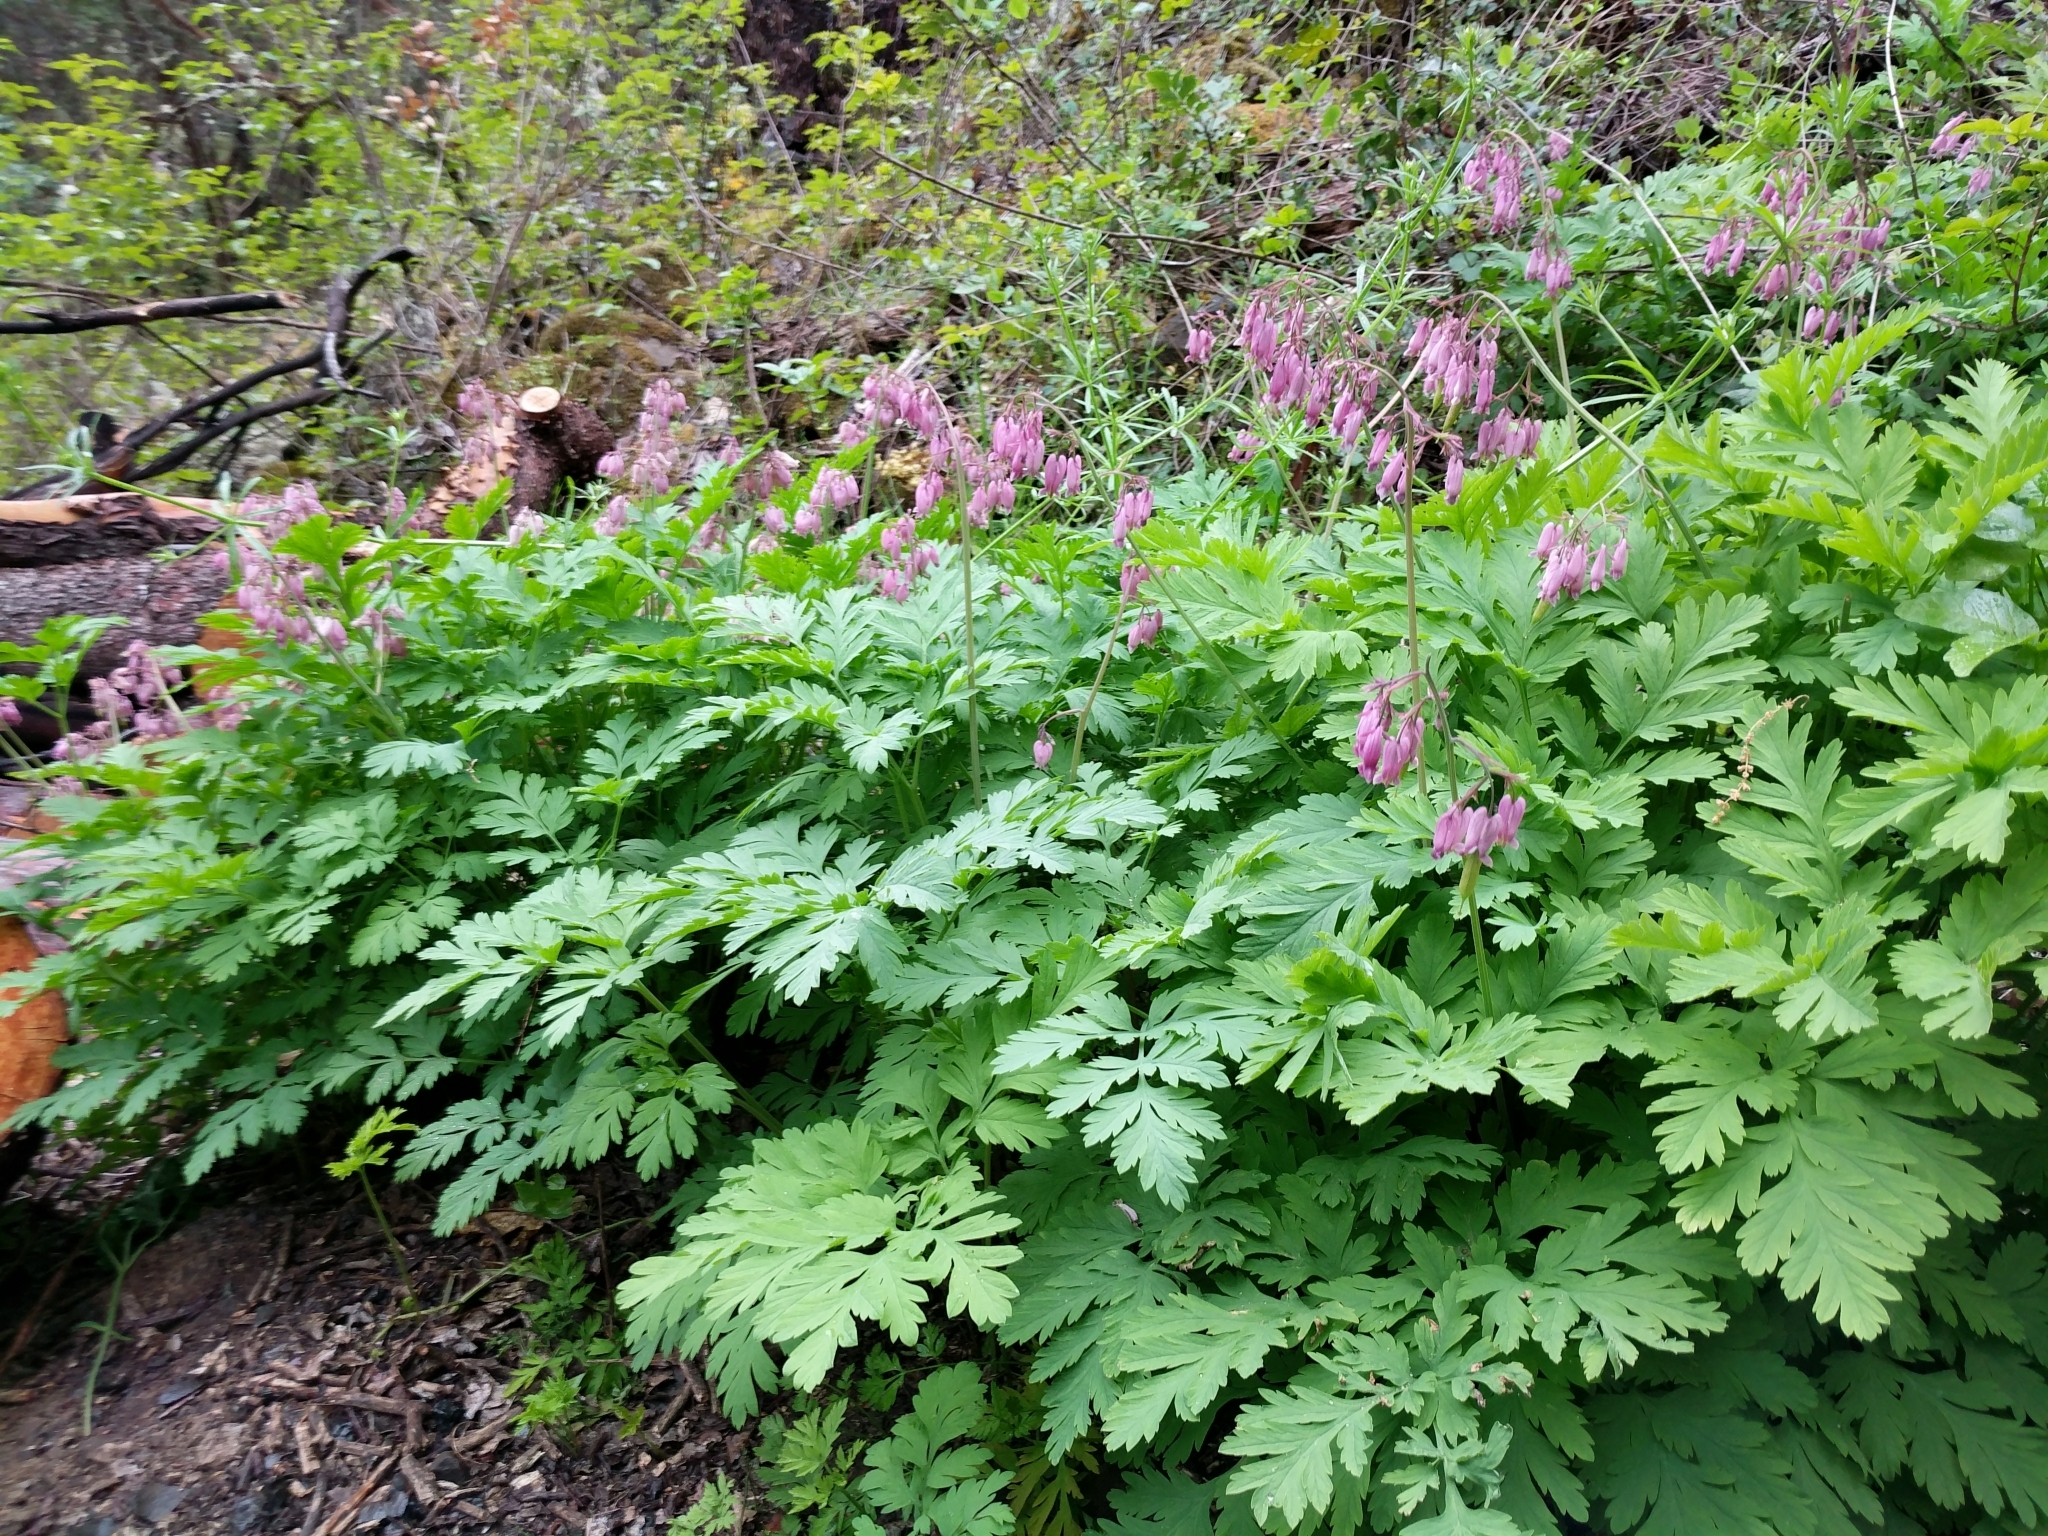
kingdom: Plantae
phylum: Tracheophyta
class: Magnoliopsida
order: Ranunculales
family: Papaveraceae
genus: Dicentra
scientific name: Dicentra formosa
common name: Bleeding-heart
